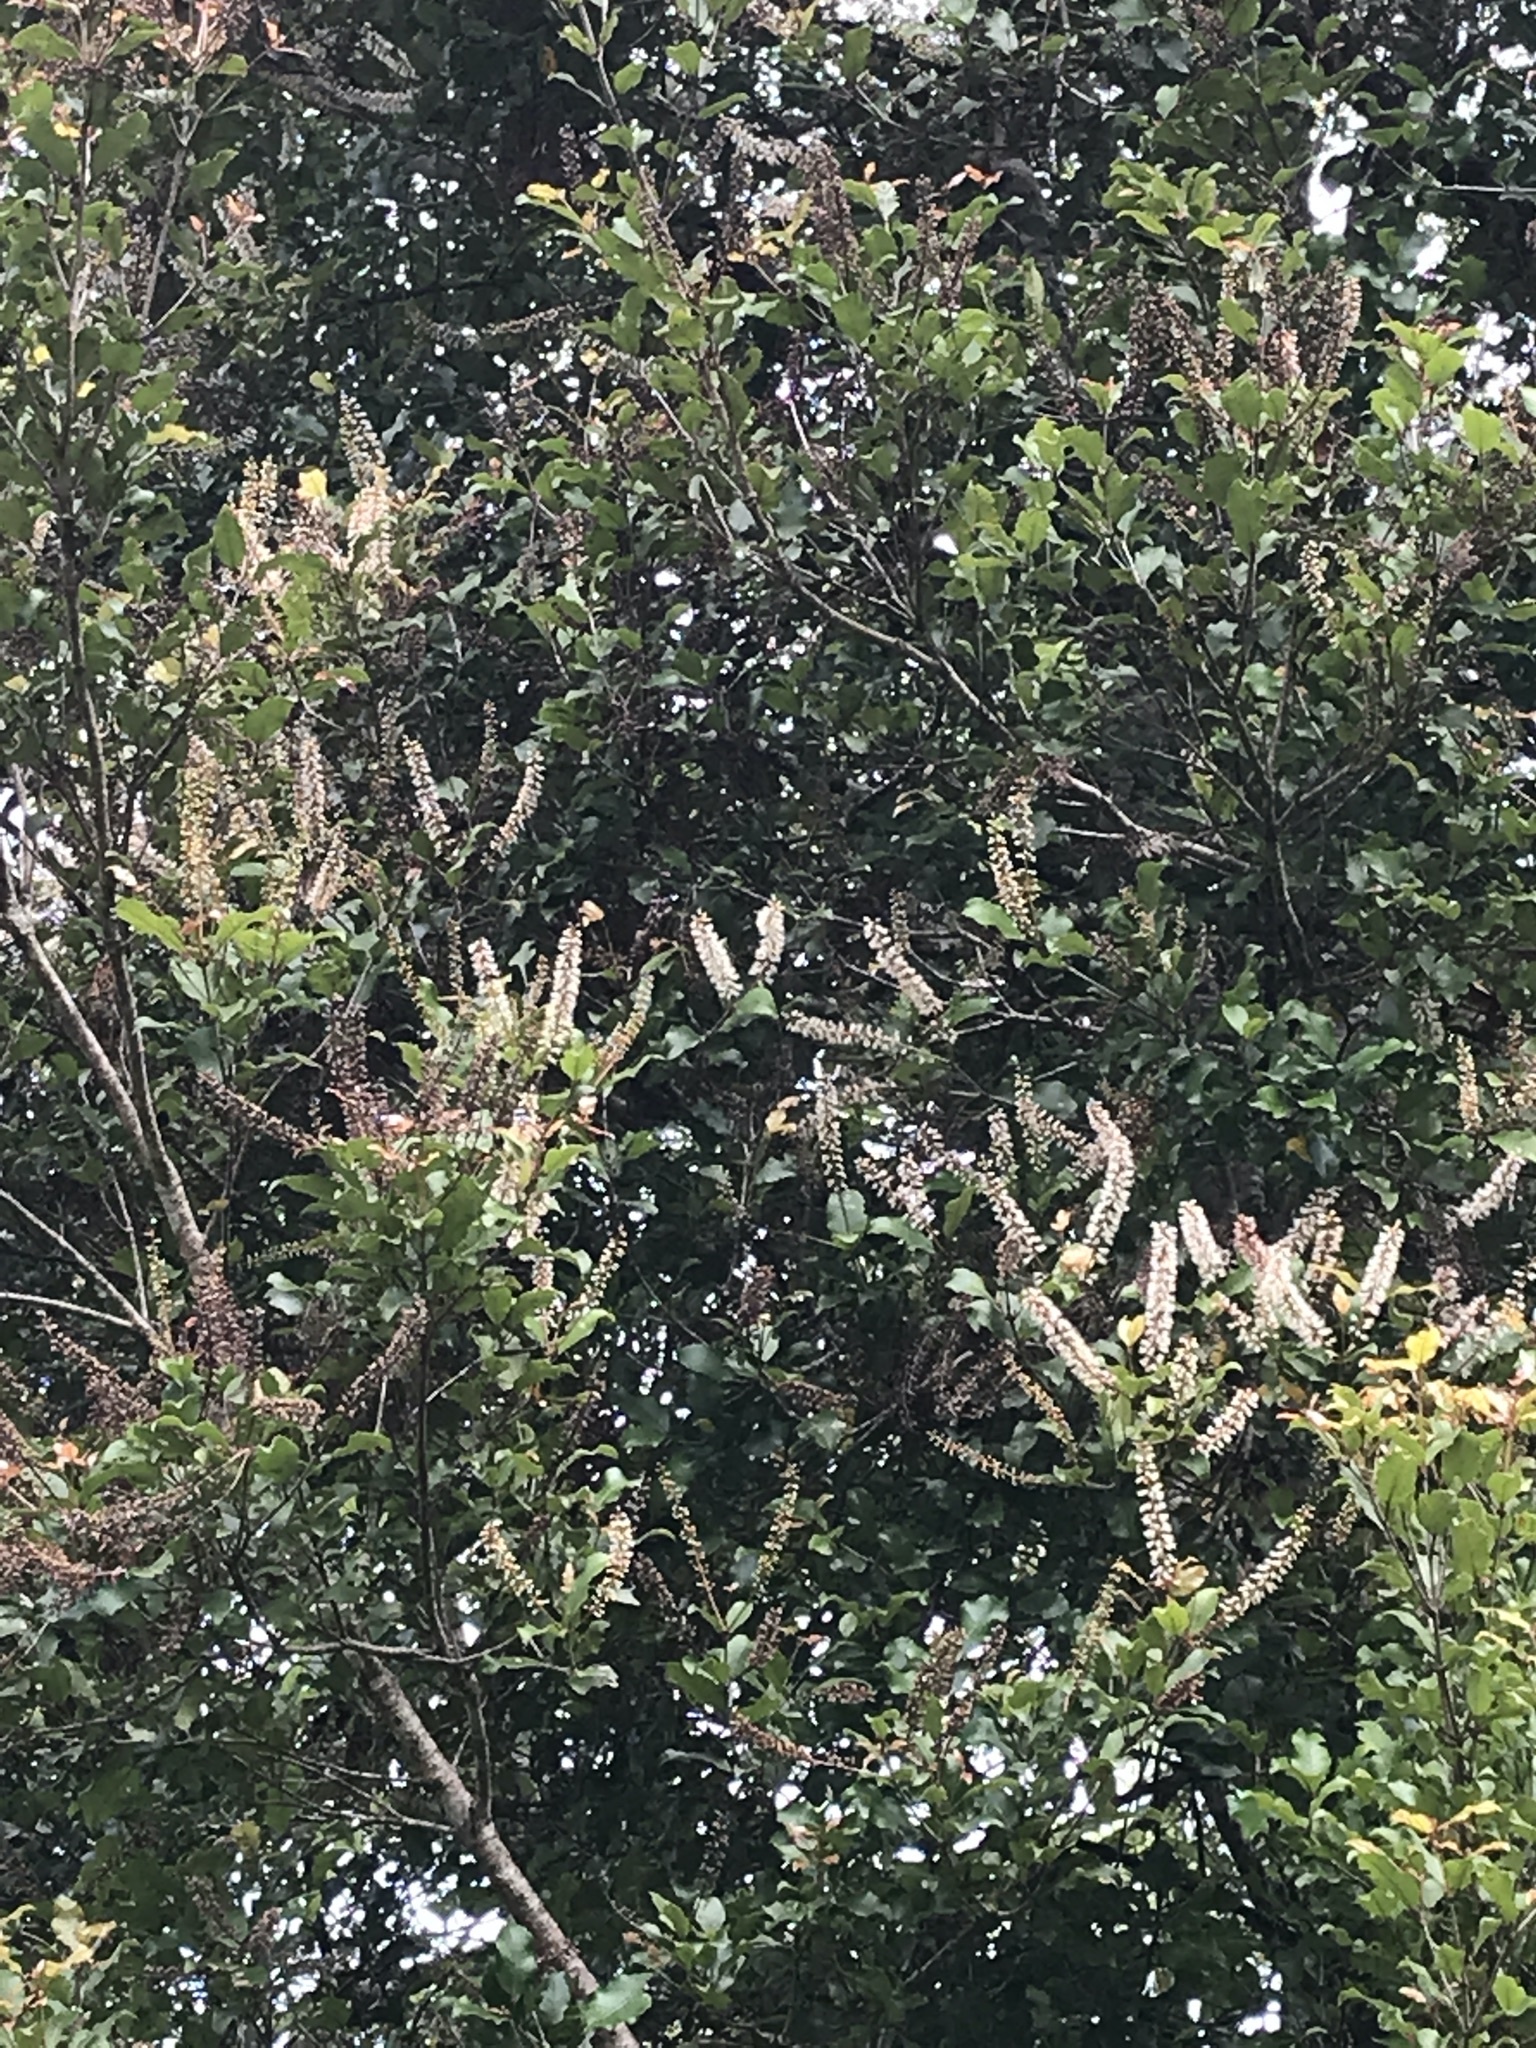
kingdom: Plantae
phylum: Tracheophyta
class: Magnoliopsida
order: Oxalidales
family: Cunoniaceae
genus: Pterophylla
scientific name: Pterophylla racemosa
